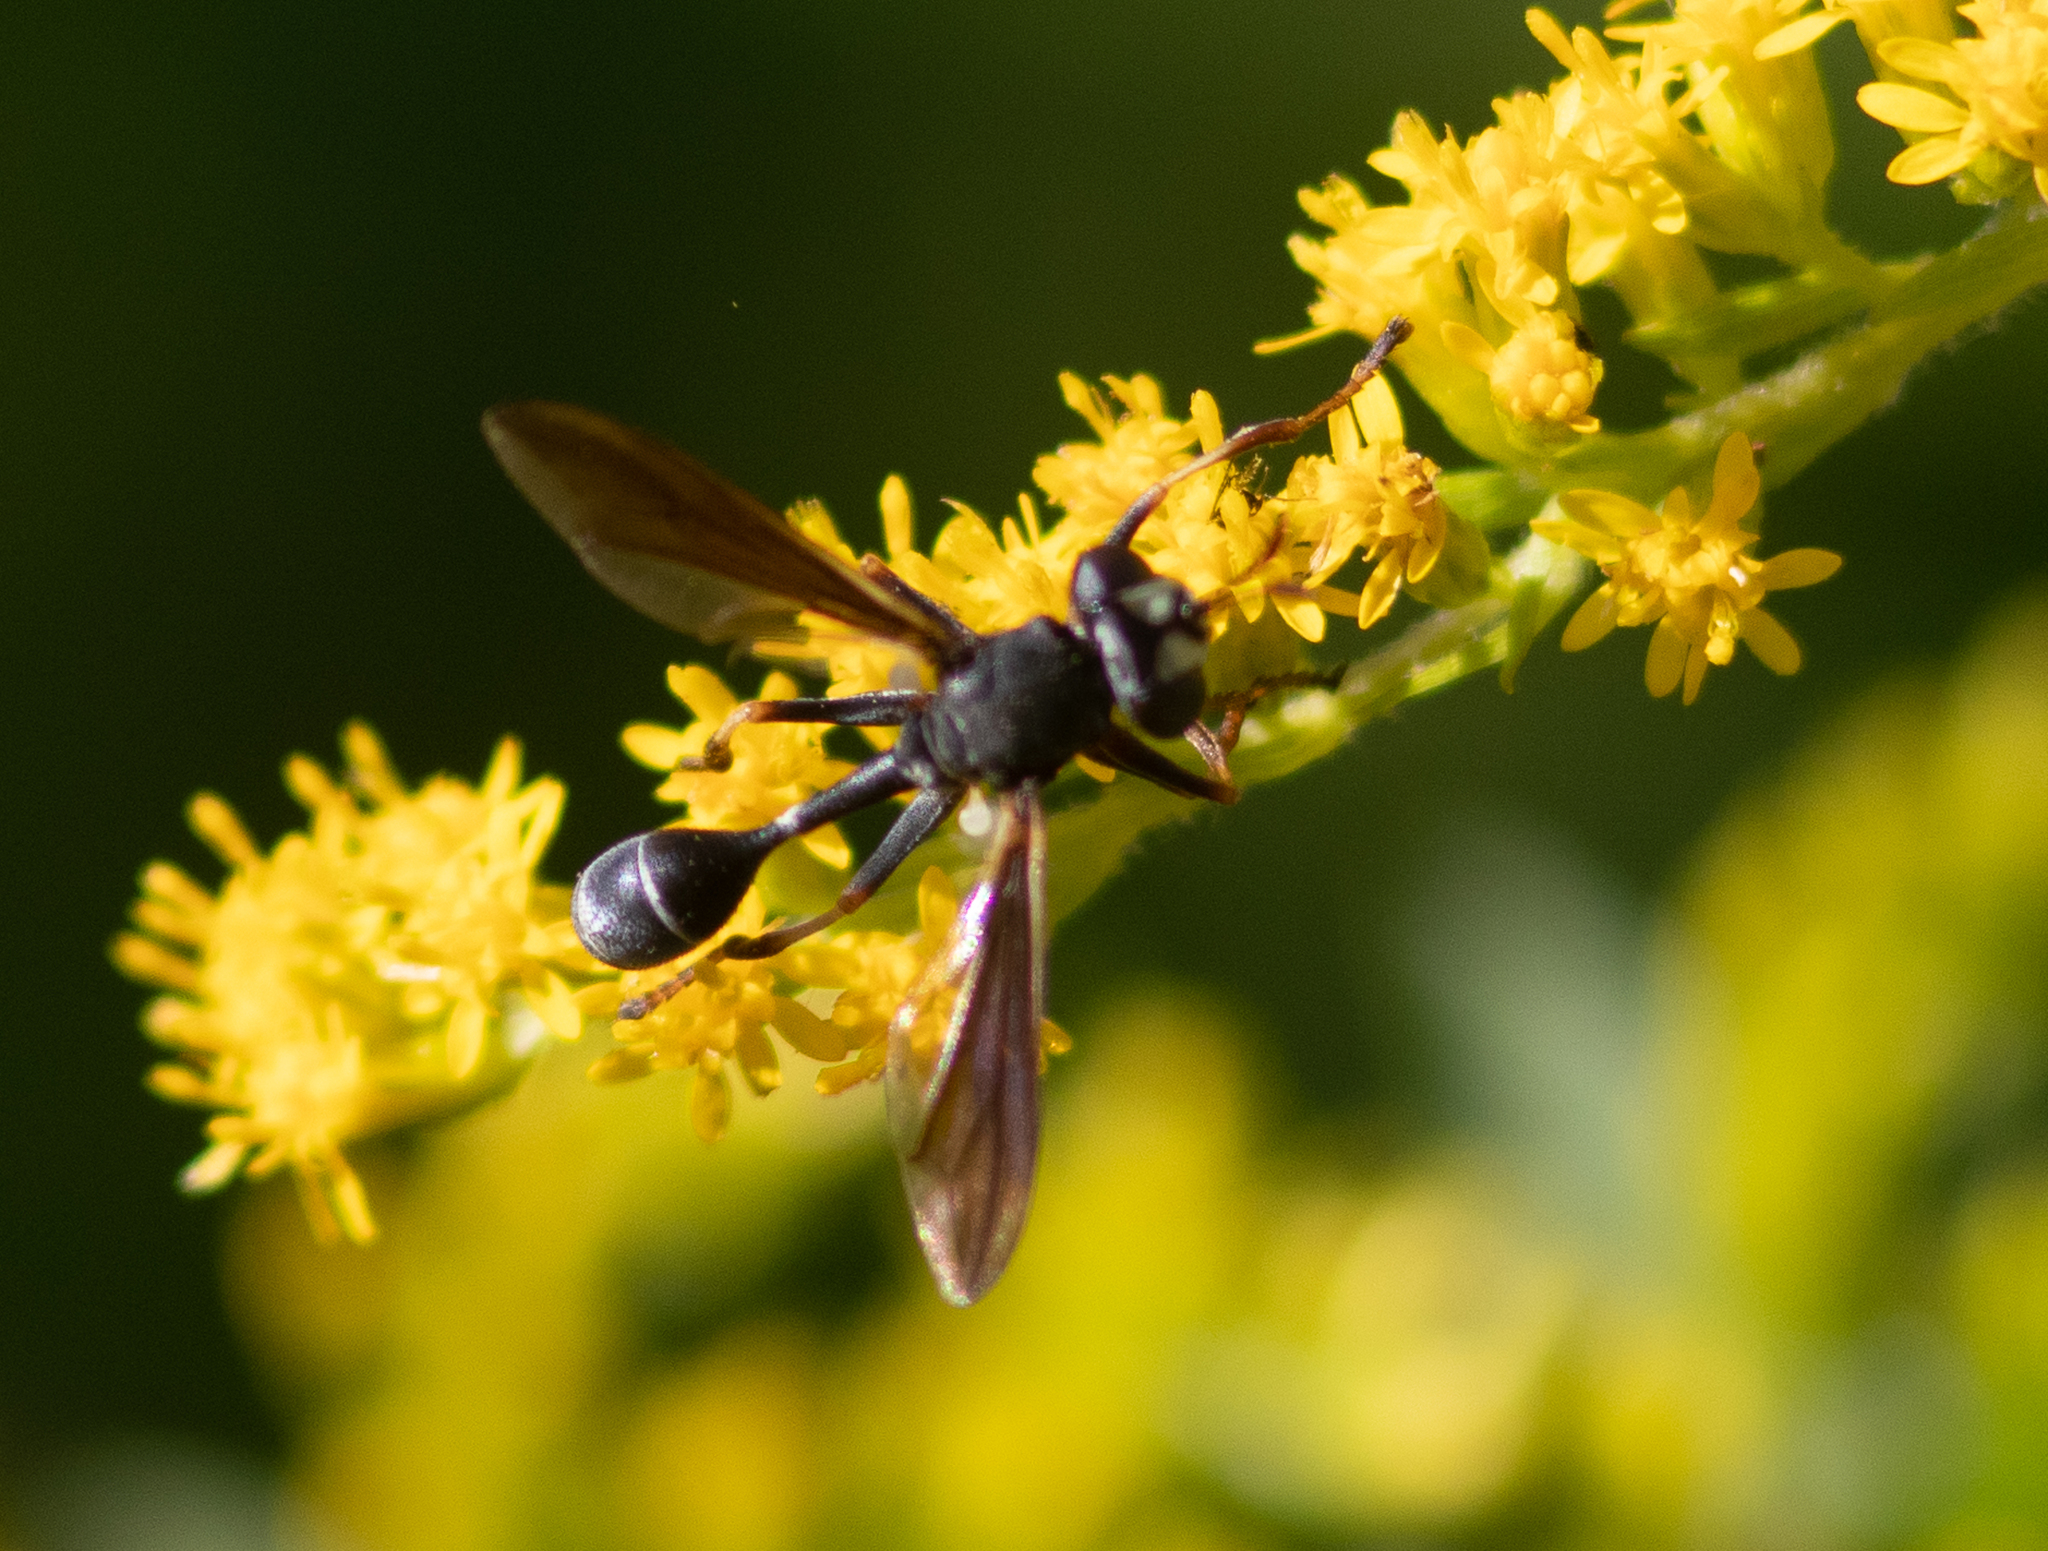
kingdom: Animalia
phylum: Arthropoda
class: Insecta
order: Diptera
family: Conopidae
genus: Physocephala
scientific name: Physocephala tibialis
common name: Common eastern physocephala
